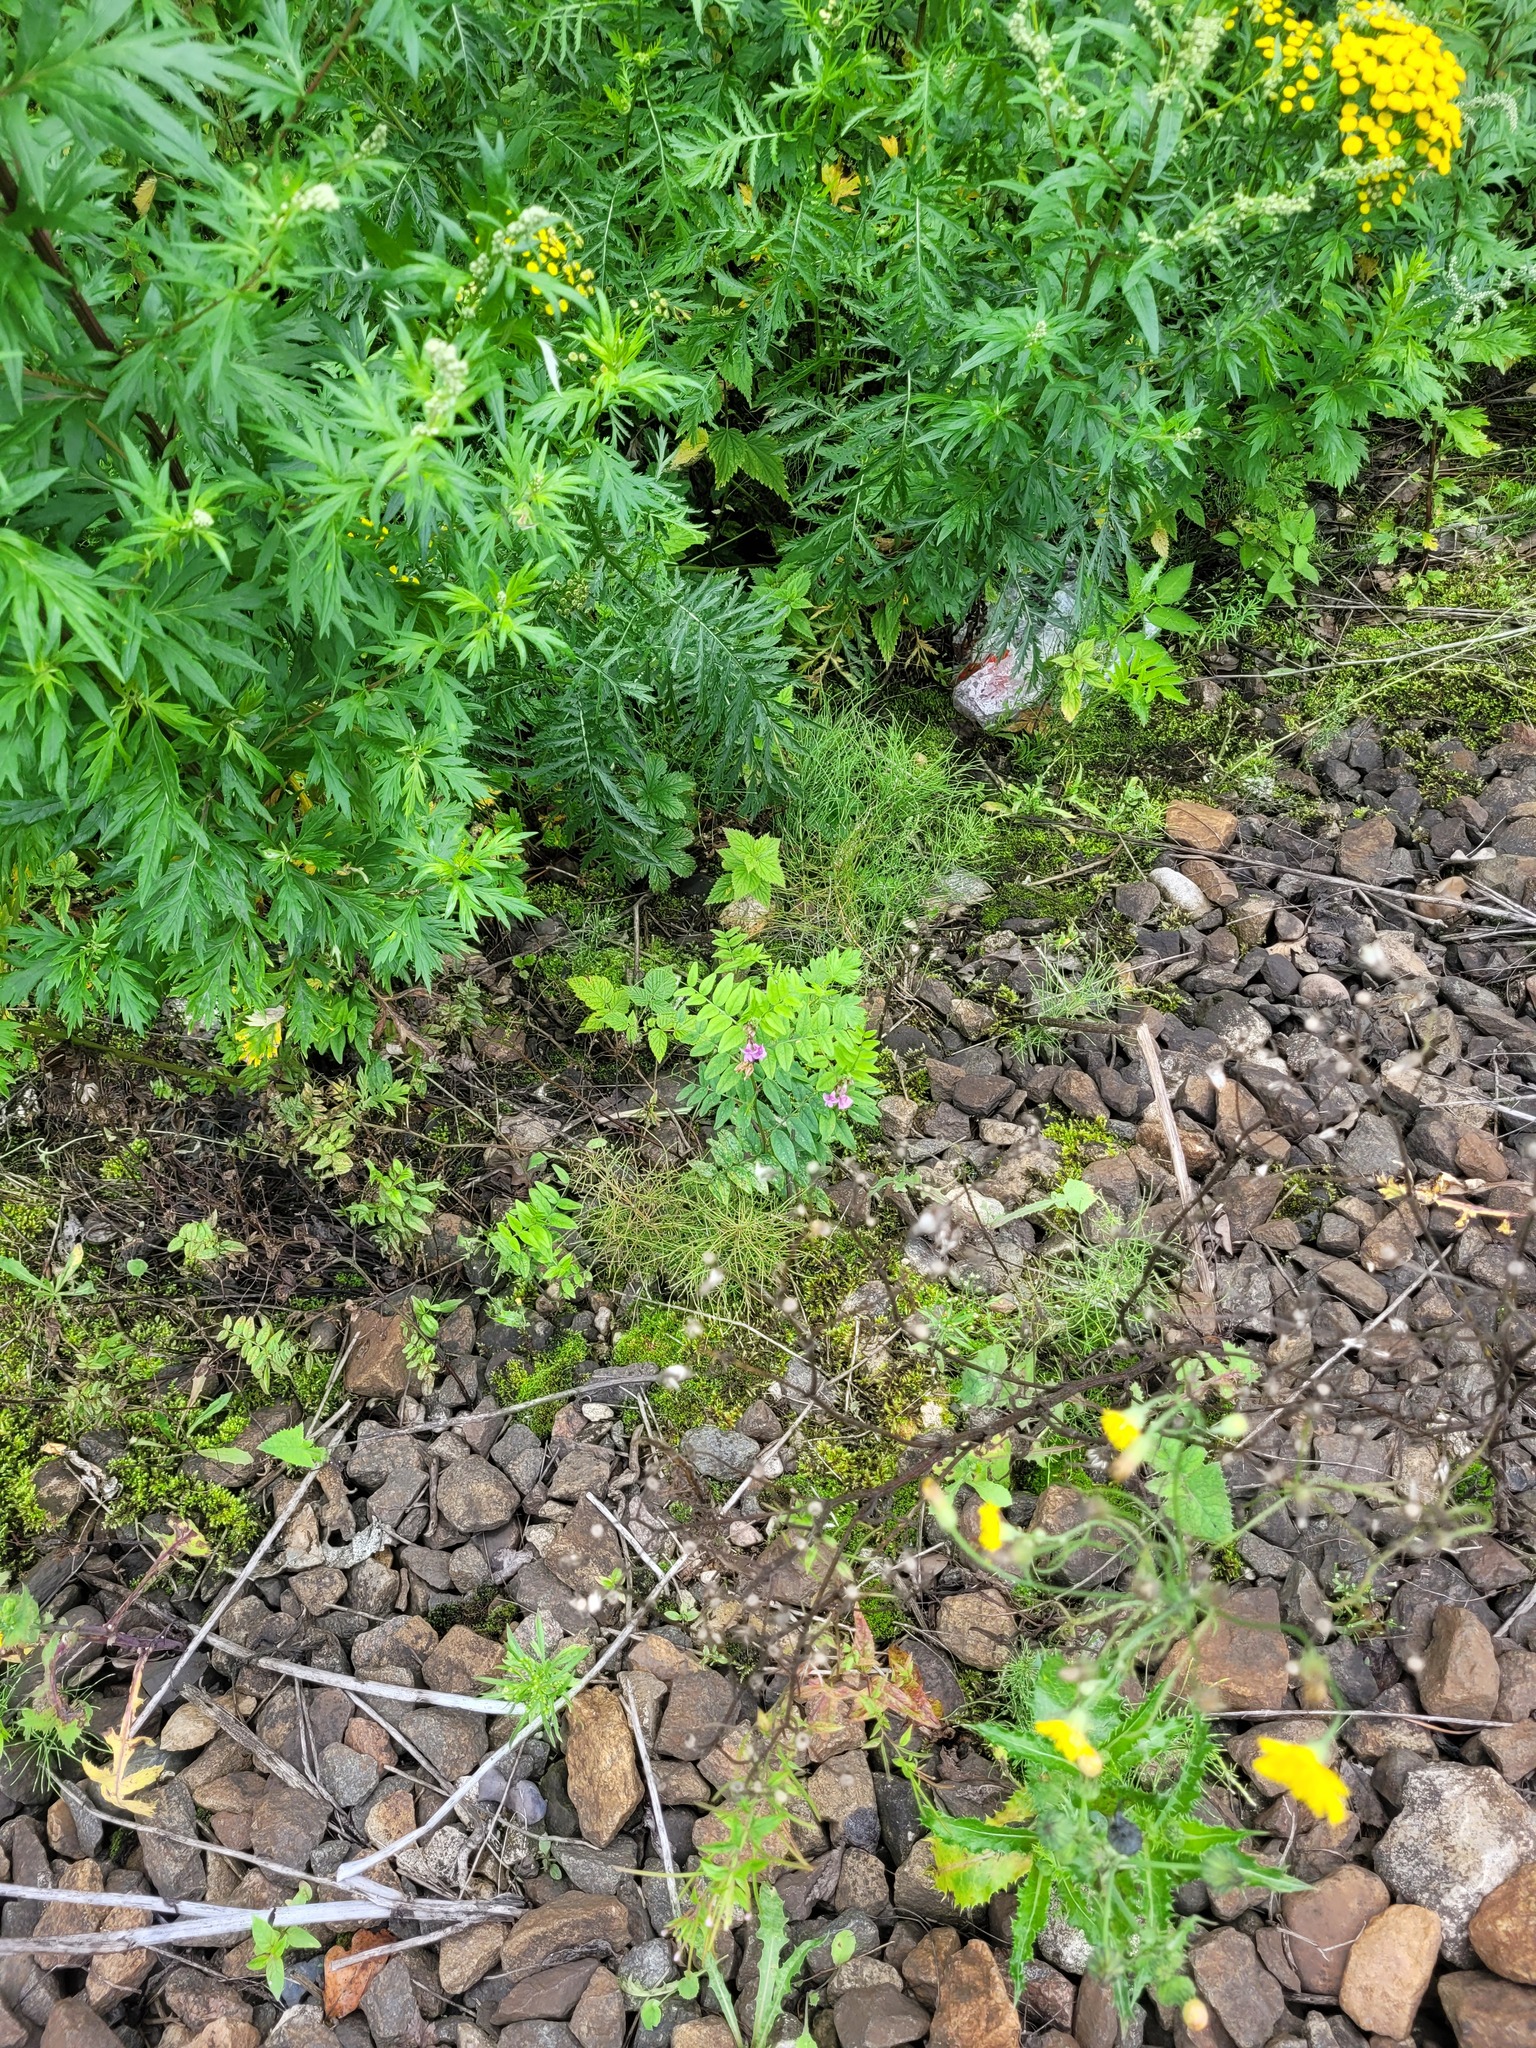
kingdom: Plantae
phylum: Tracheophyta
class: Magnoliopsida
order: Fabales
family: Fabaceae
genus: Vicia
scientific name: Vicia sepium
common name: Bush vetch
